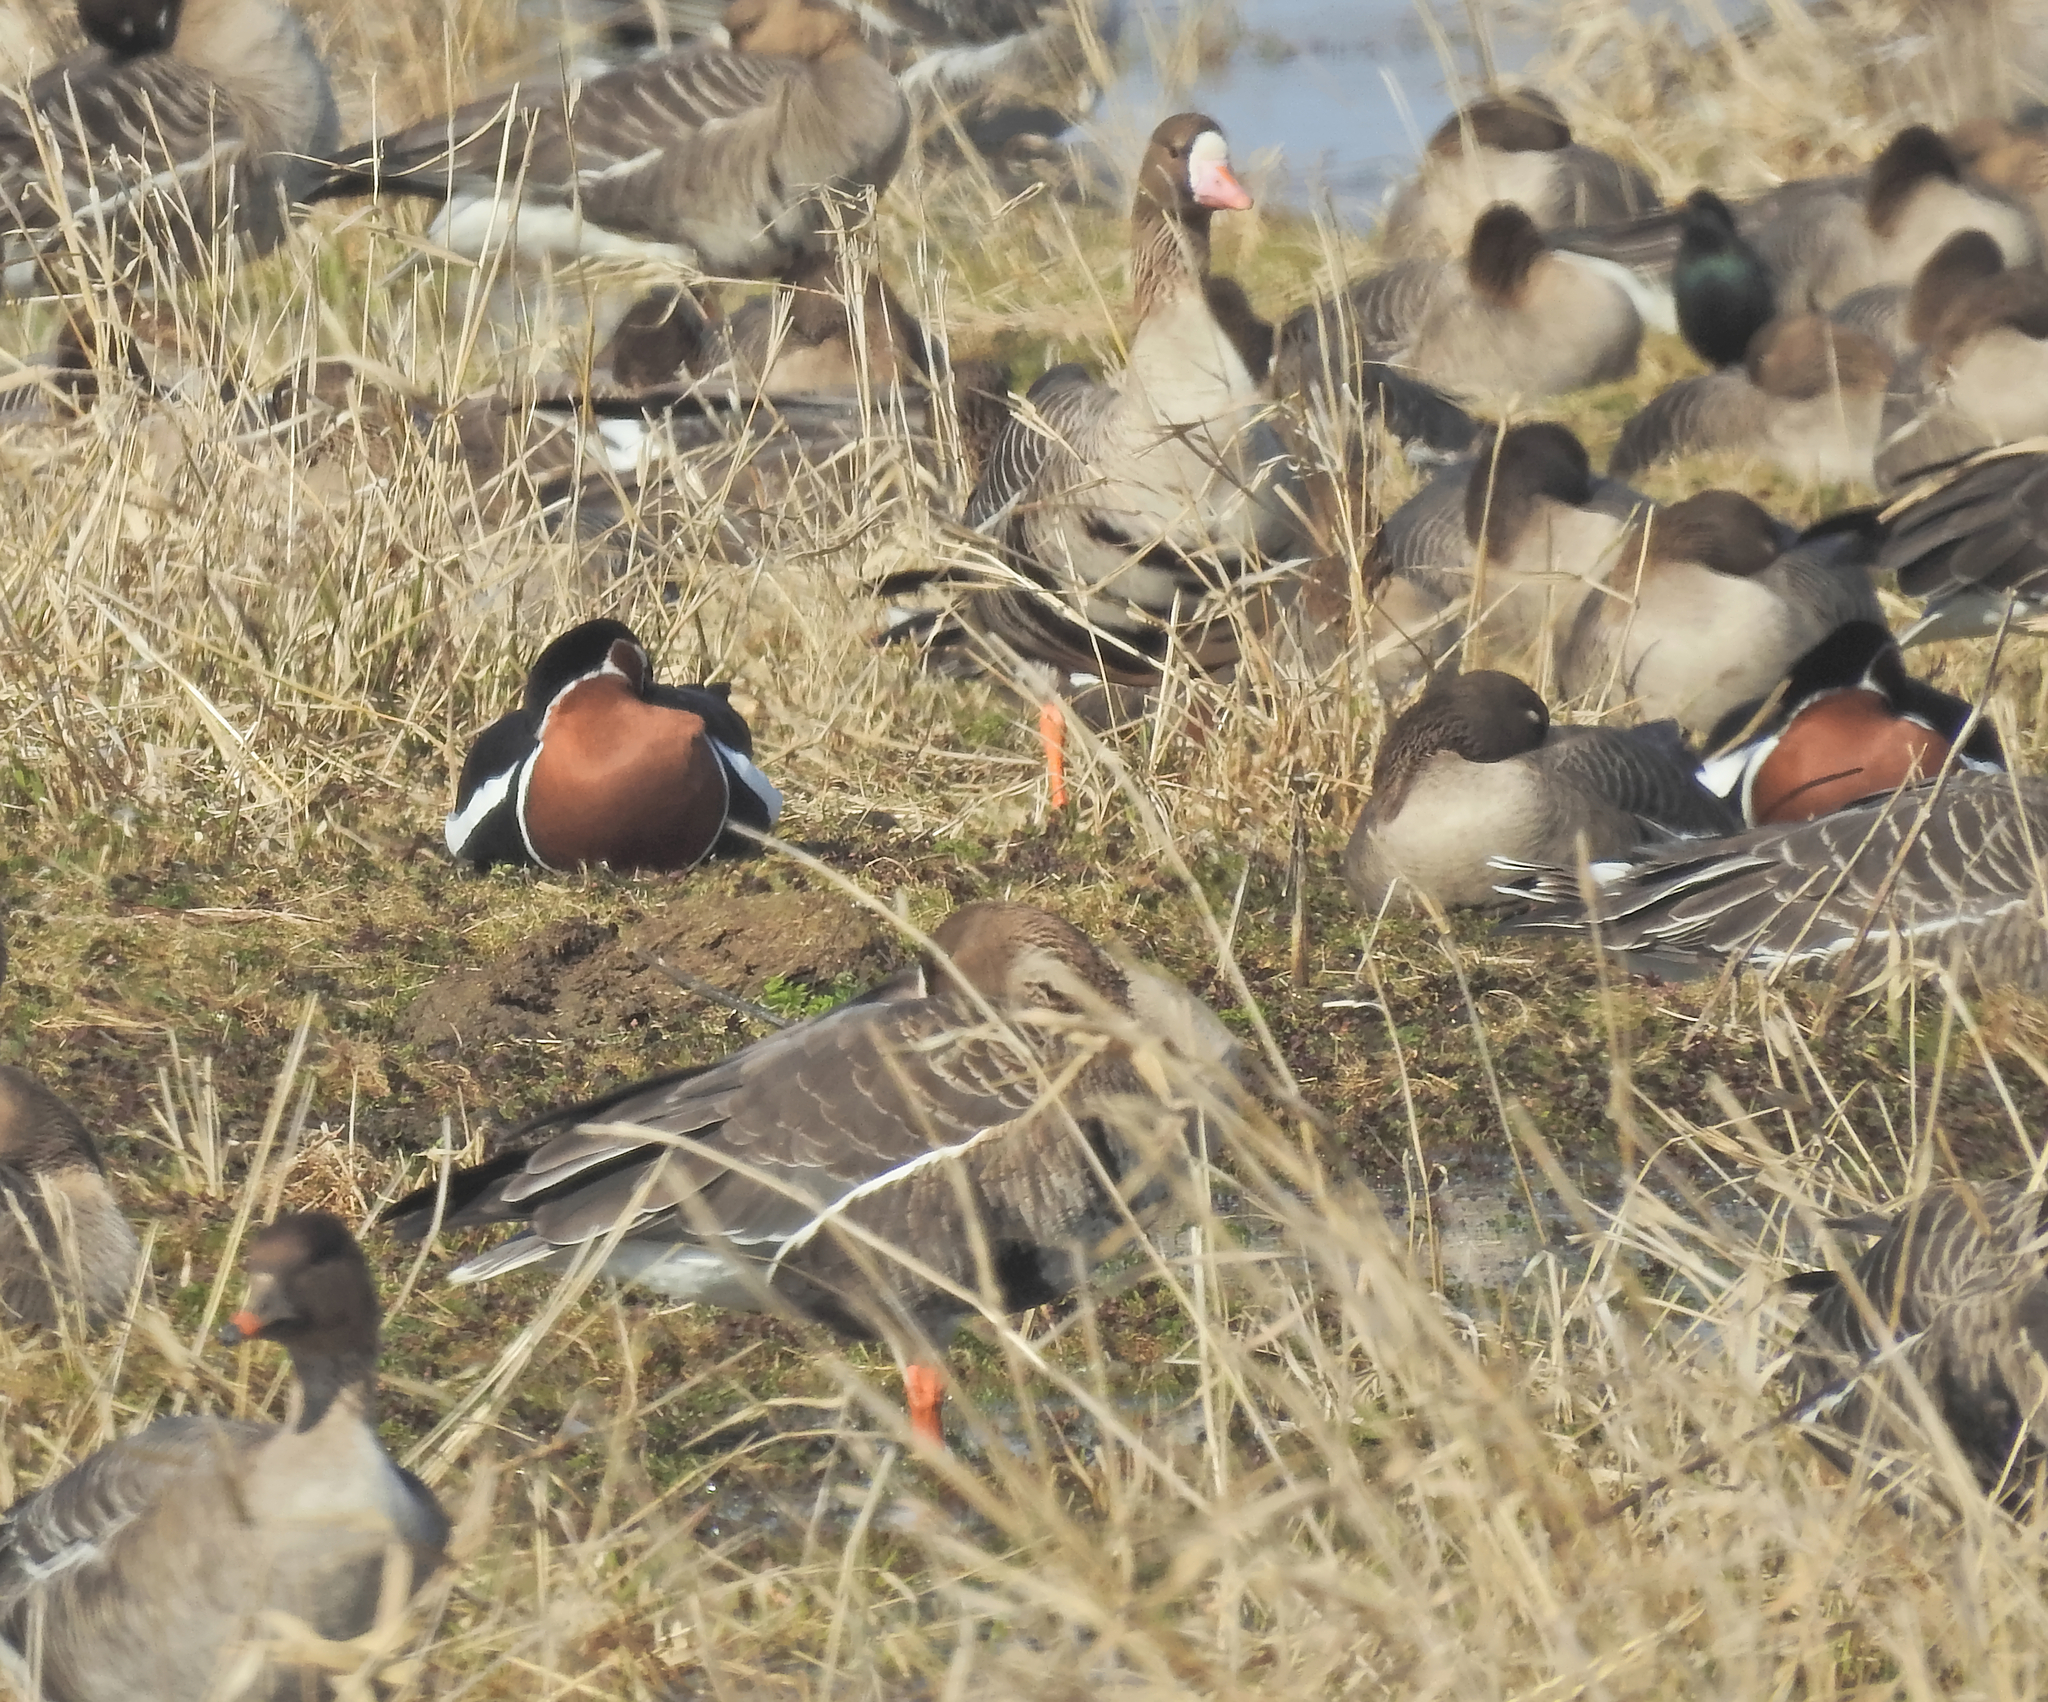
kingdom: Animalia
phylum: Chordata
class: Aves
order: Anseriformes
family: Anatidae
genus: Branta
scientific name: Branta ruficollis
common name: Red-breasted goose
